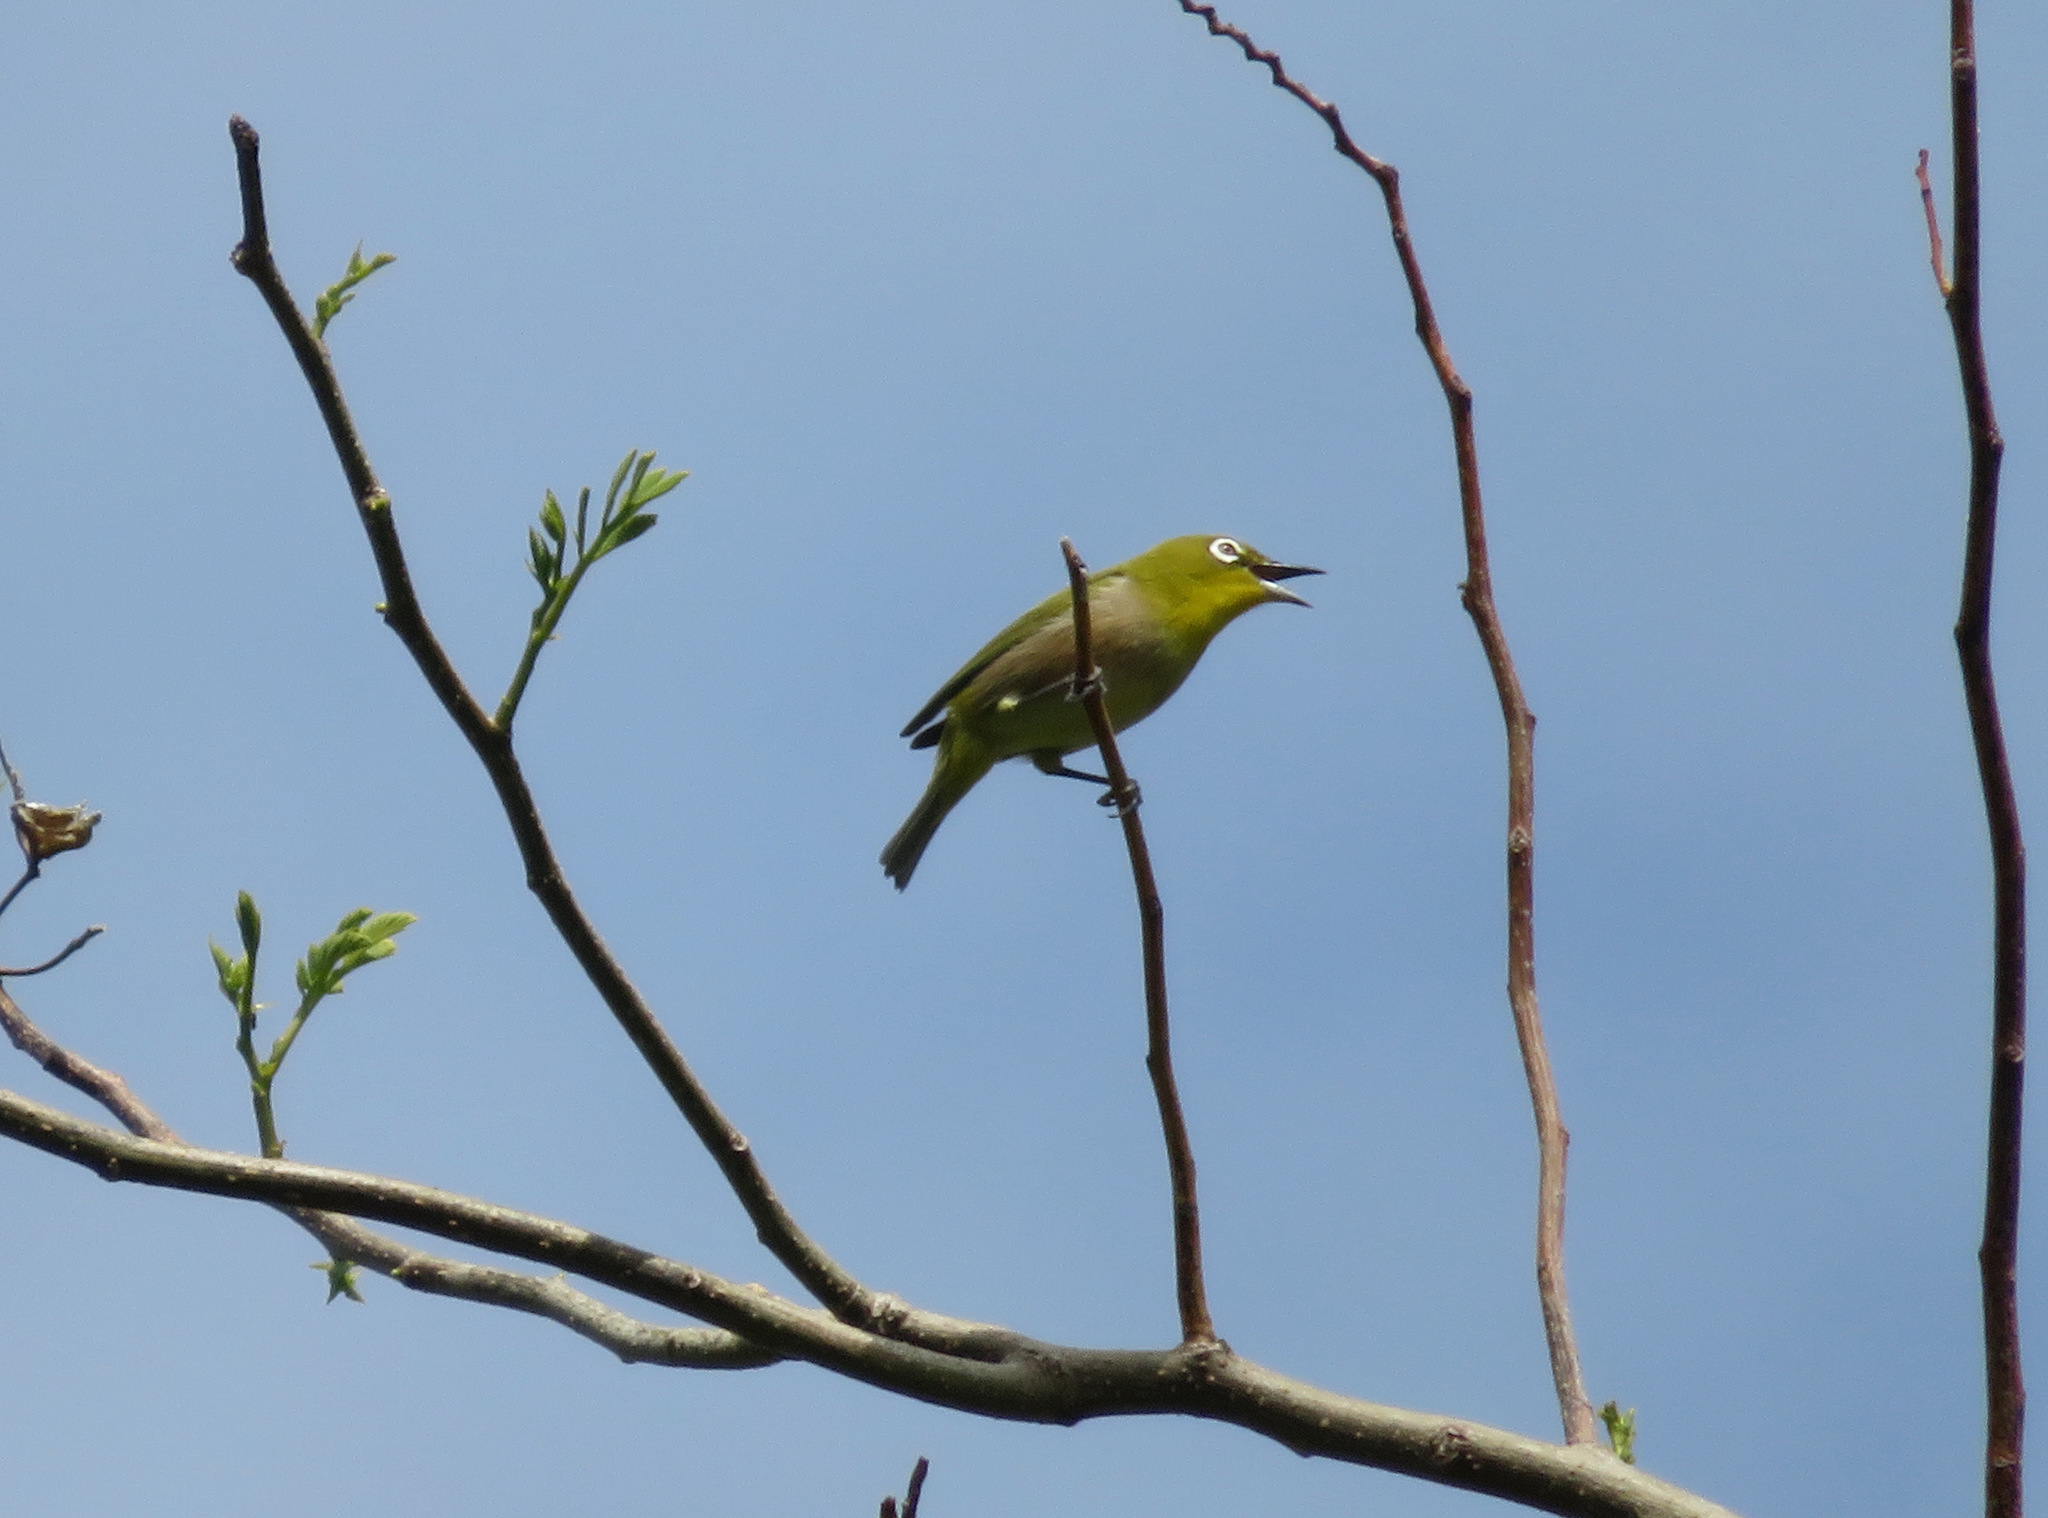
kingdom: Animalia
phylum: Chordata
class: Aves
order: Passeriformes
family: Zosteropidae
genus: Zosterops
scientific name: Zosterops japonicus
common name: Japanese white-eye
